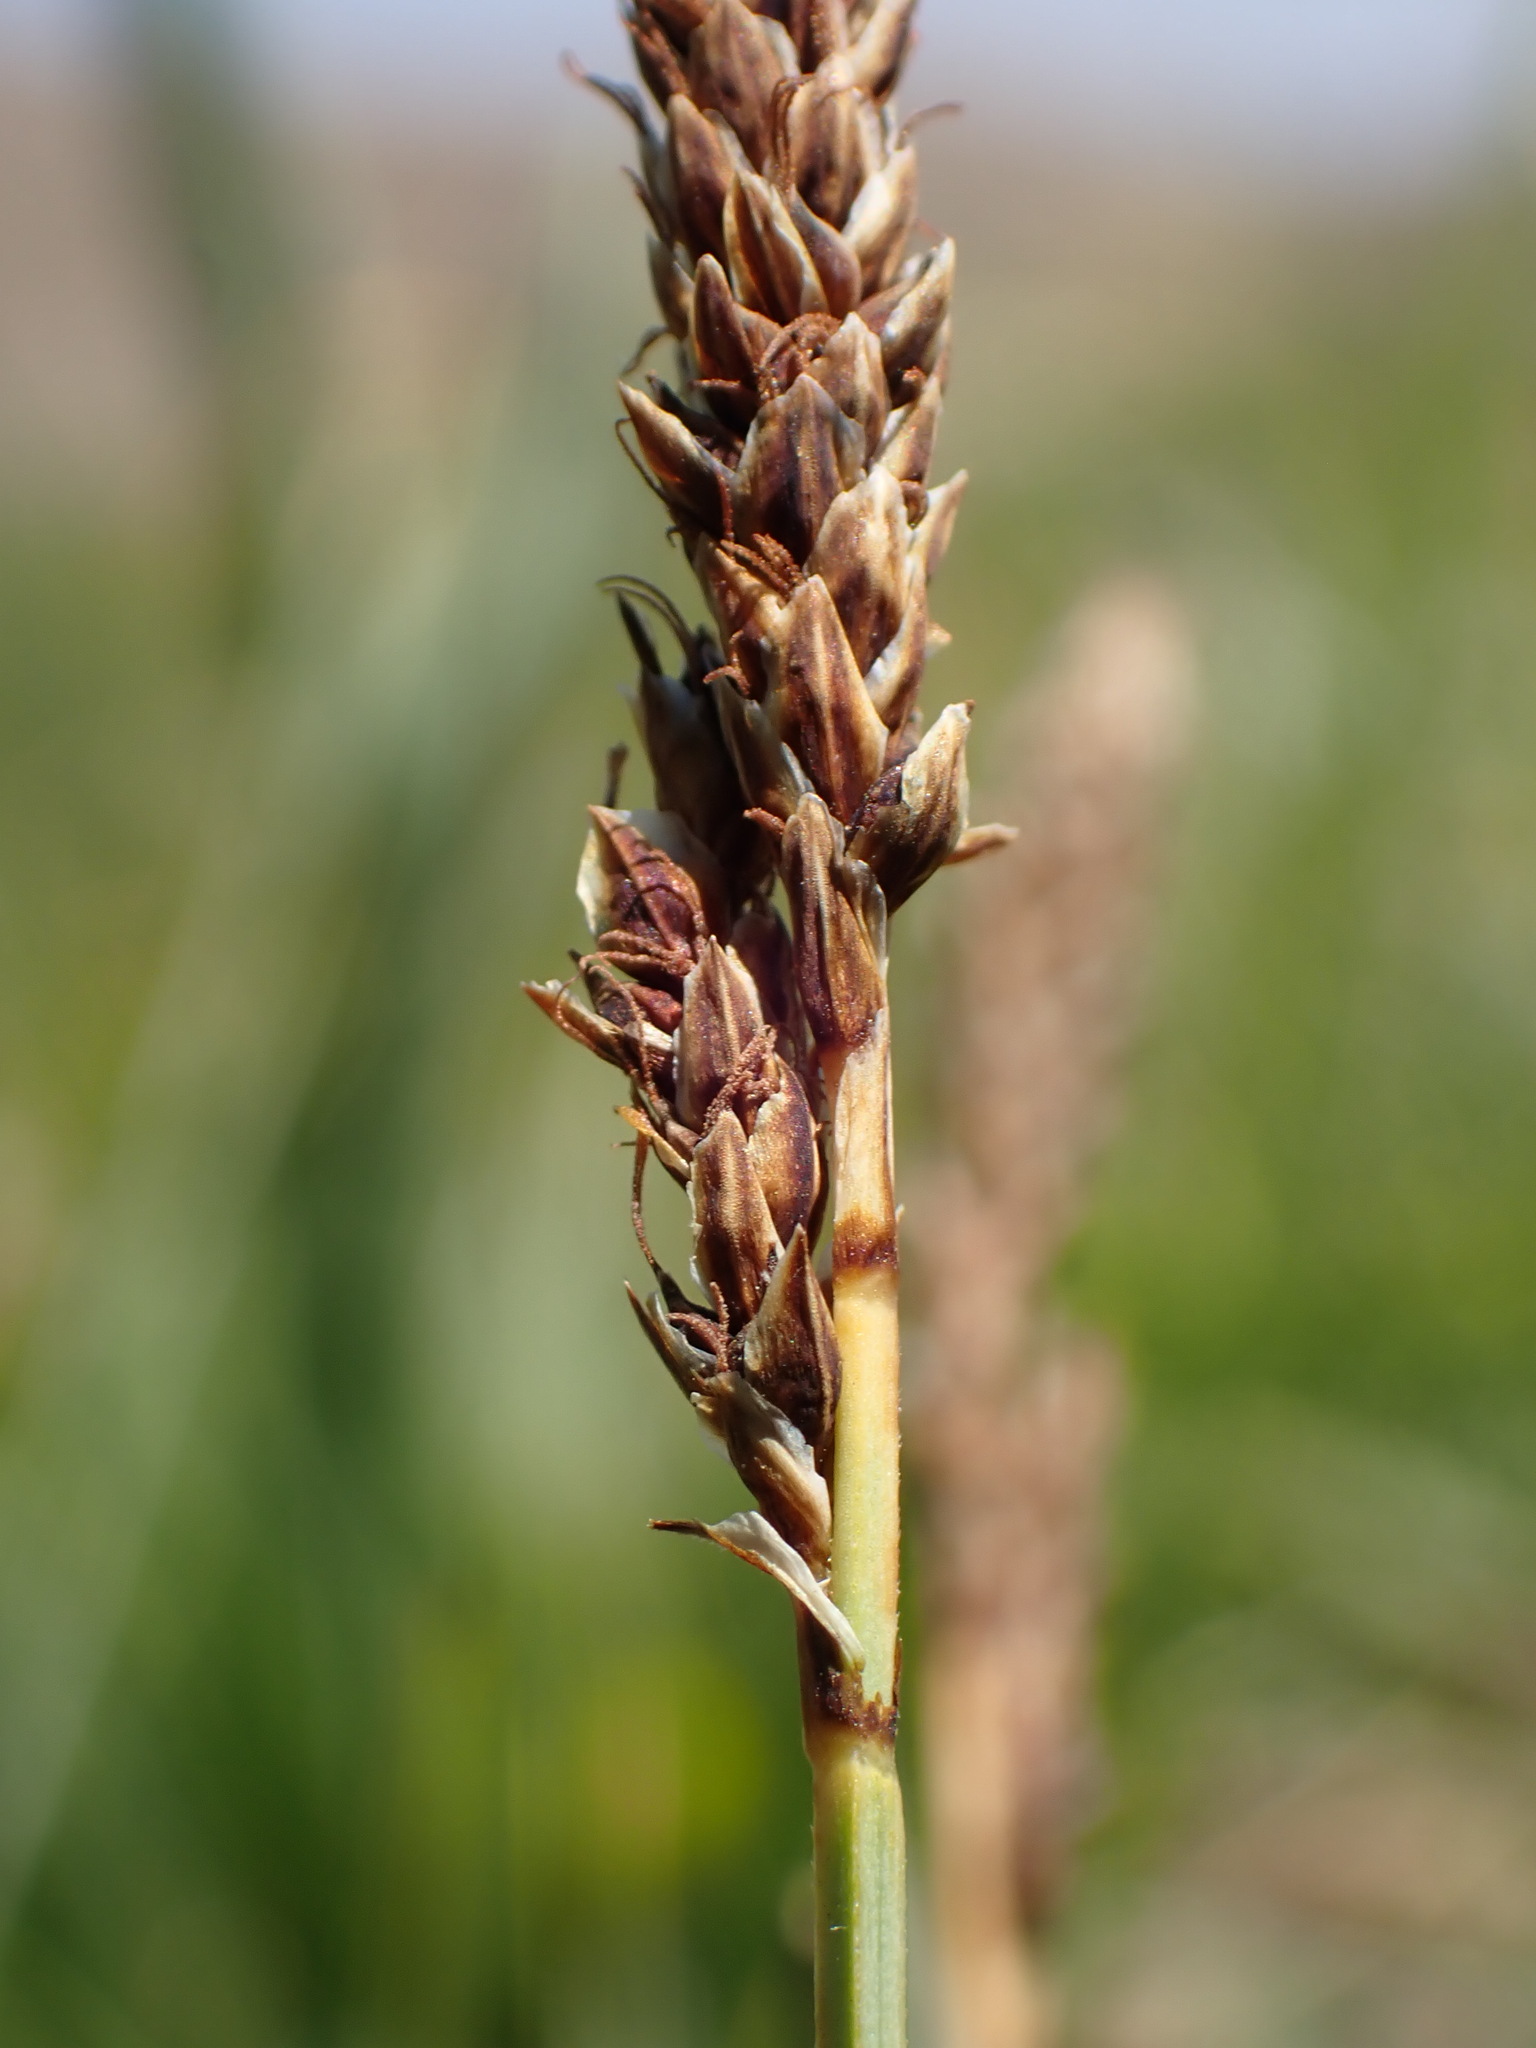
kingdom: Plantae
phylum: Tracheophyta
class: Liliopsida
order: Poales
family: Cyperaceae
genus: Carex
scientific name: Carex idahoa
